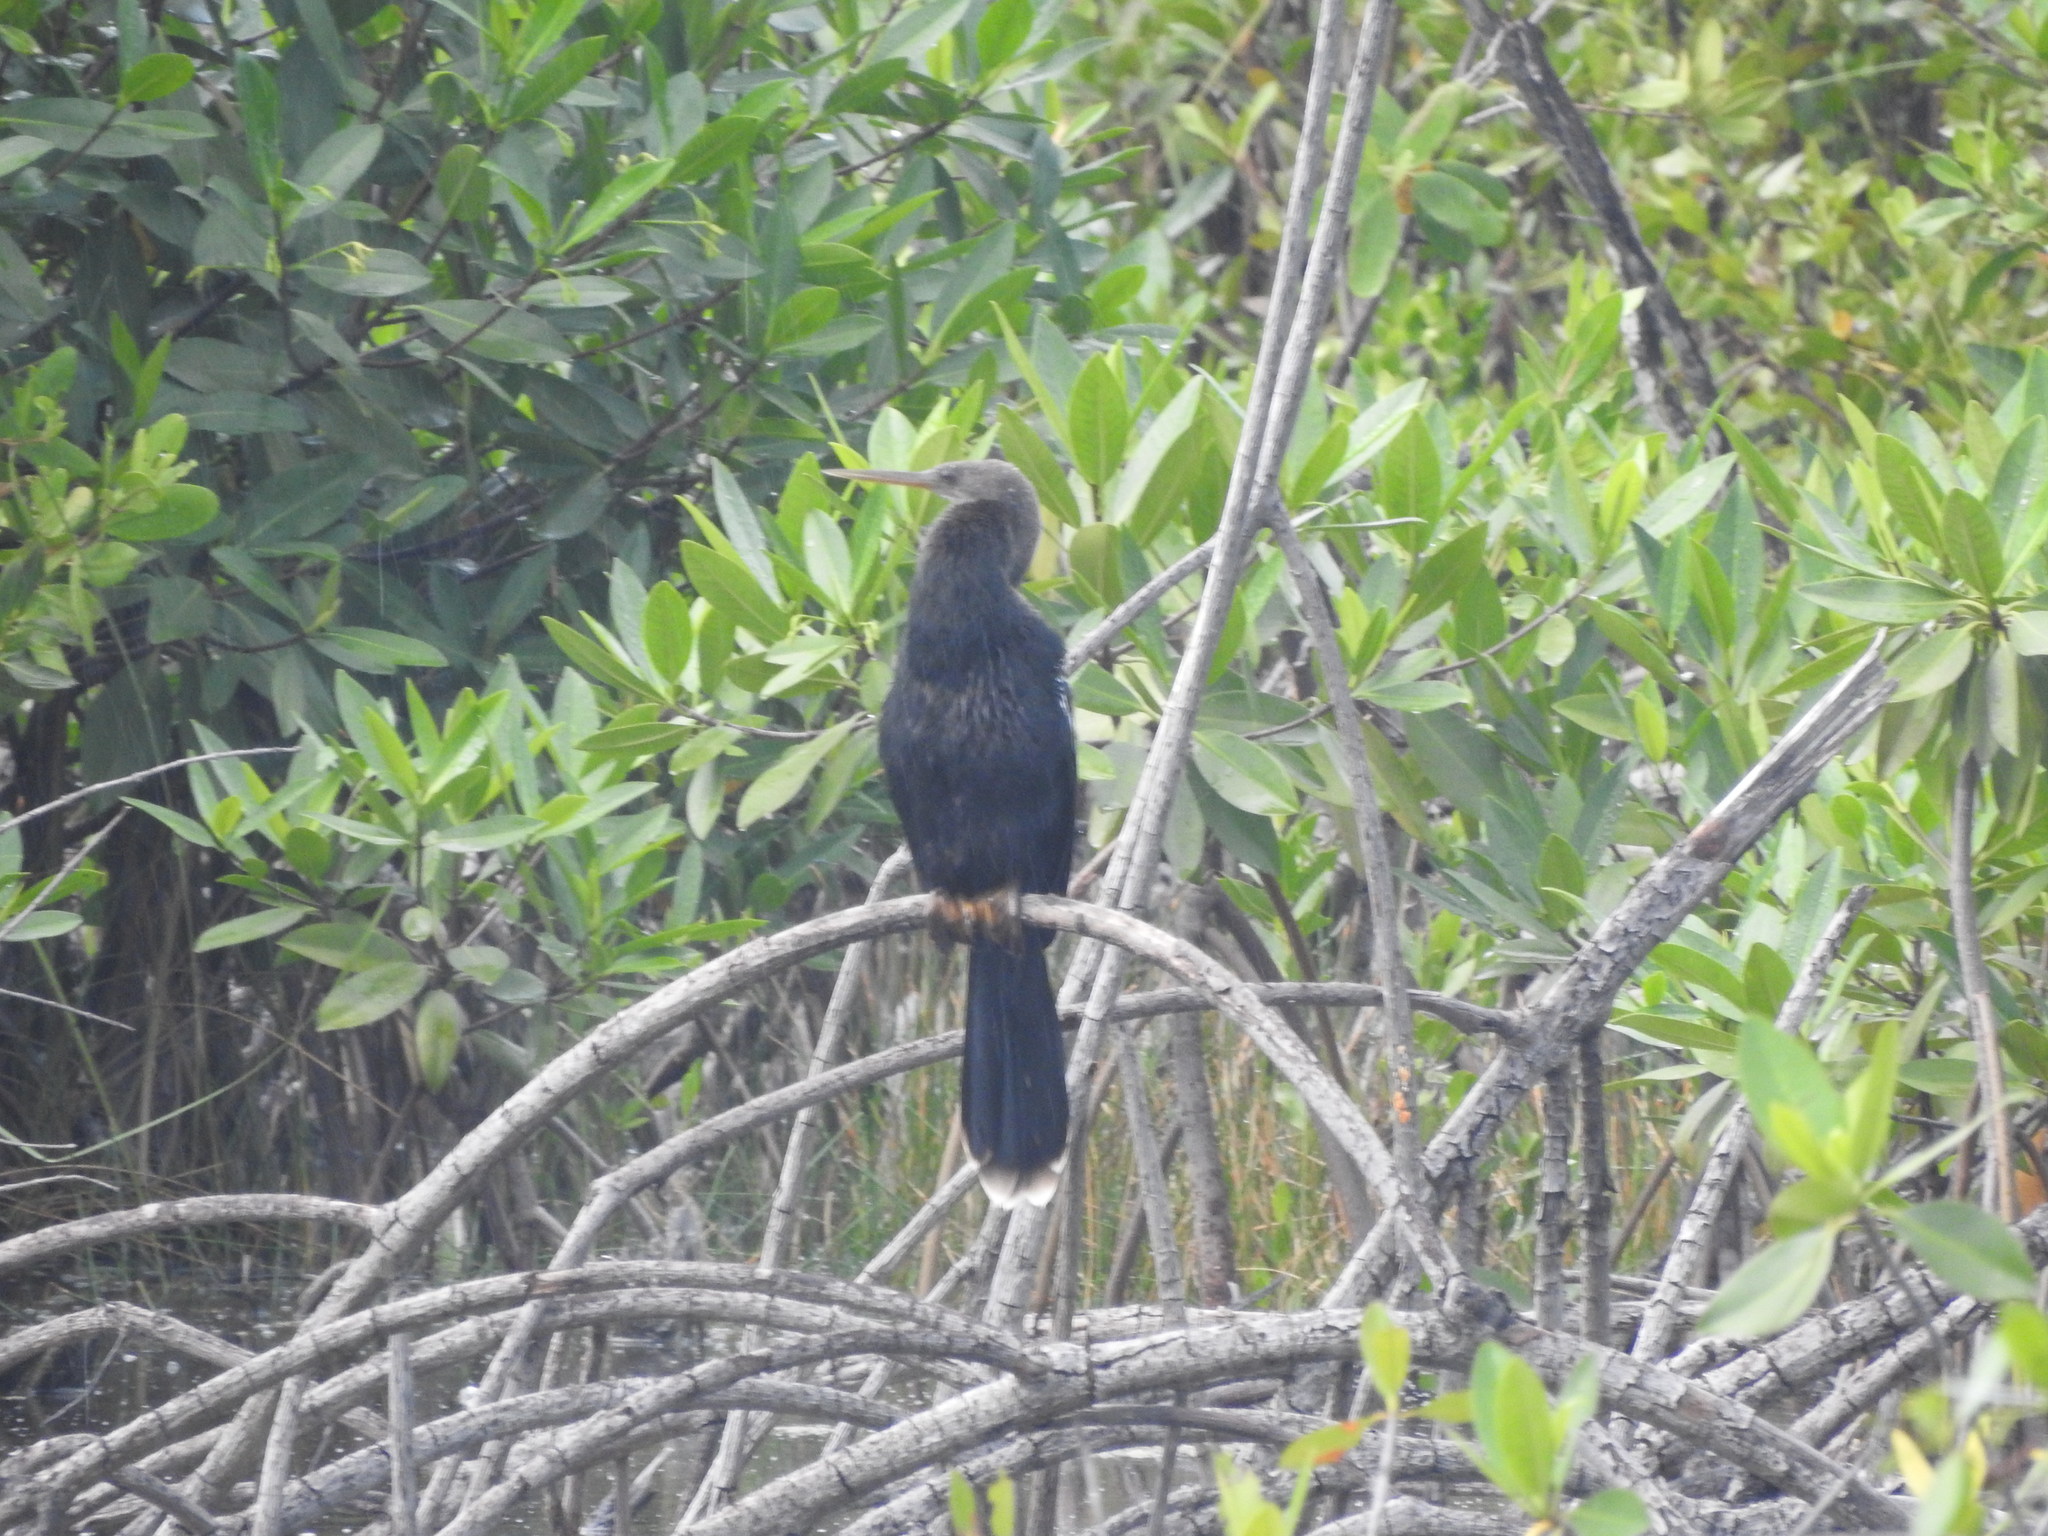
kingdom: Animalia
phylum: Chordata
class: Aves
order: Suliformes
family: Anhingidae
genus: Anhinga
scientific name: Anhinga anhinga
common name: Anhinga
